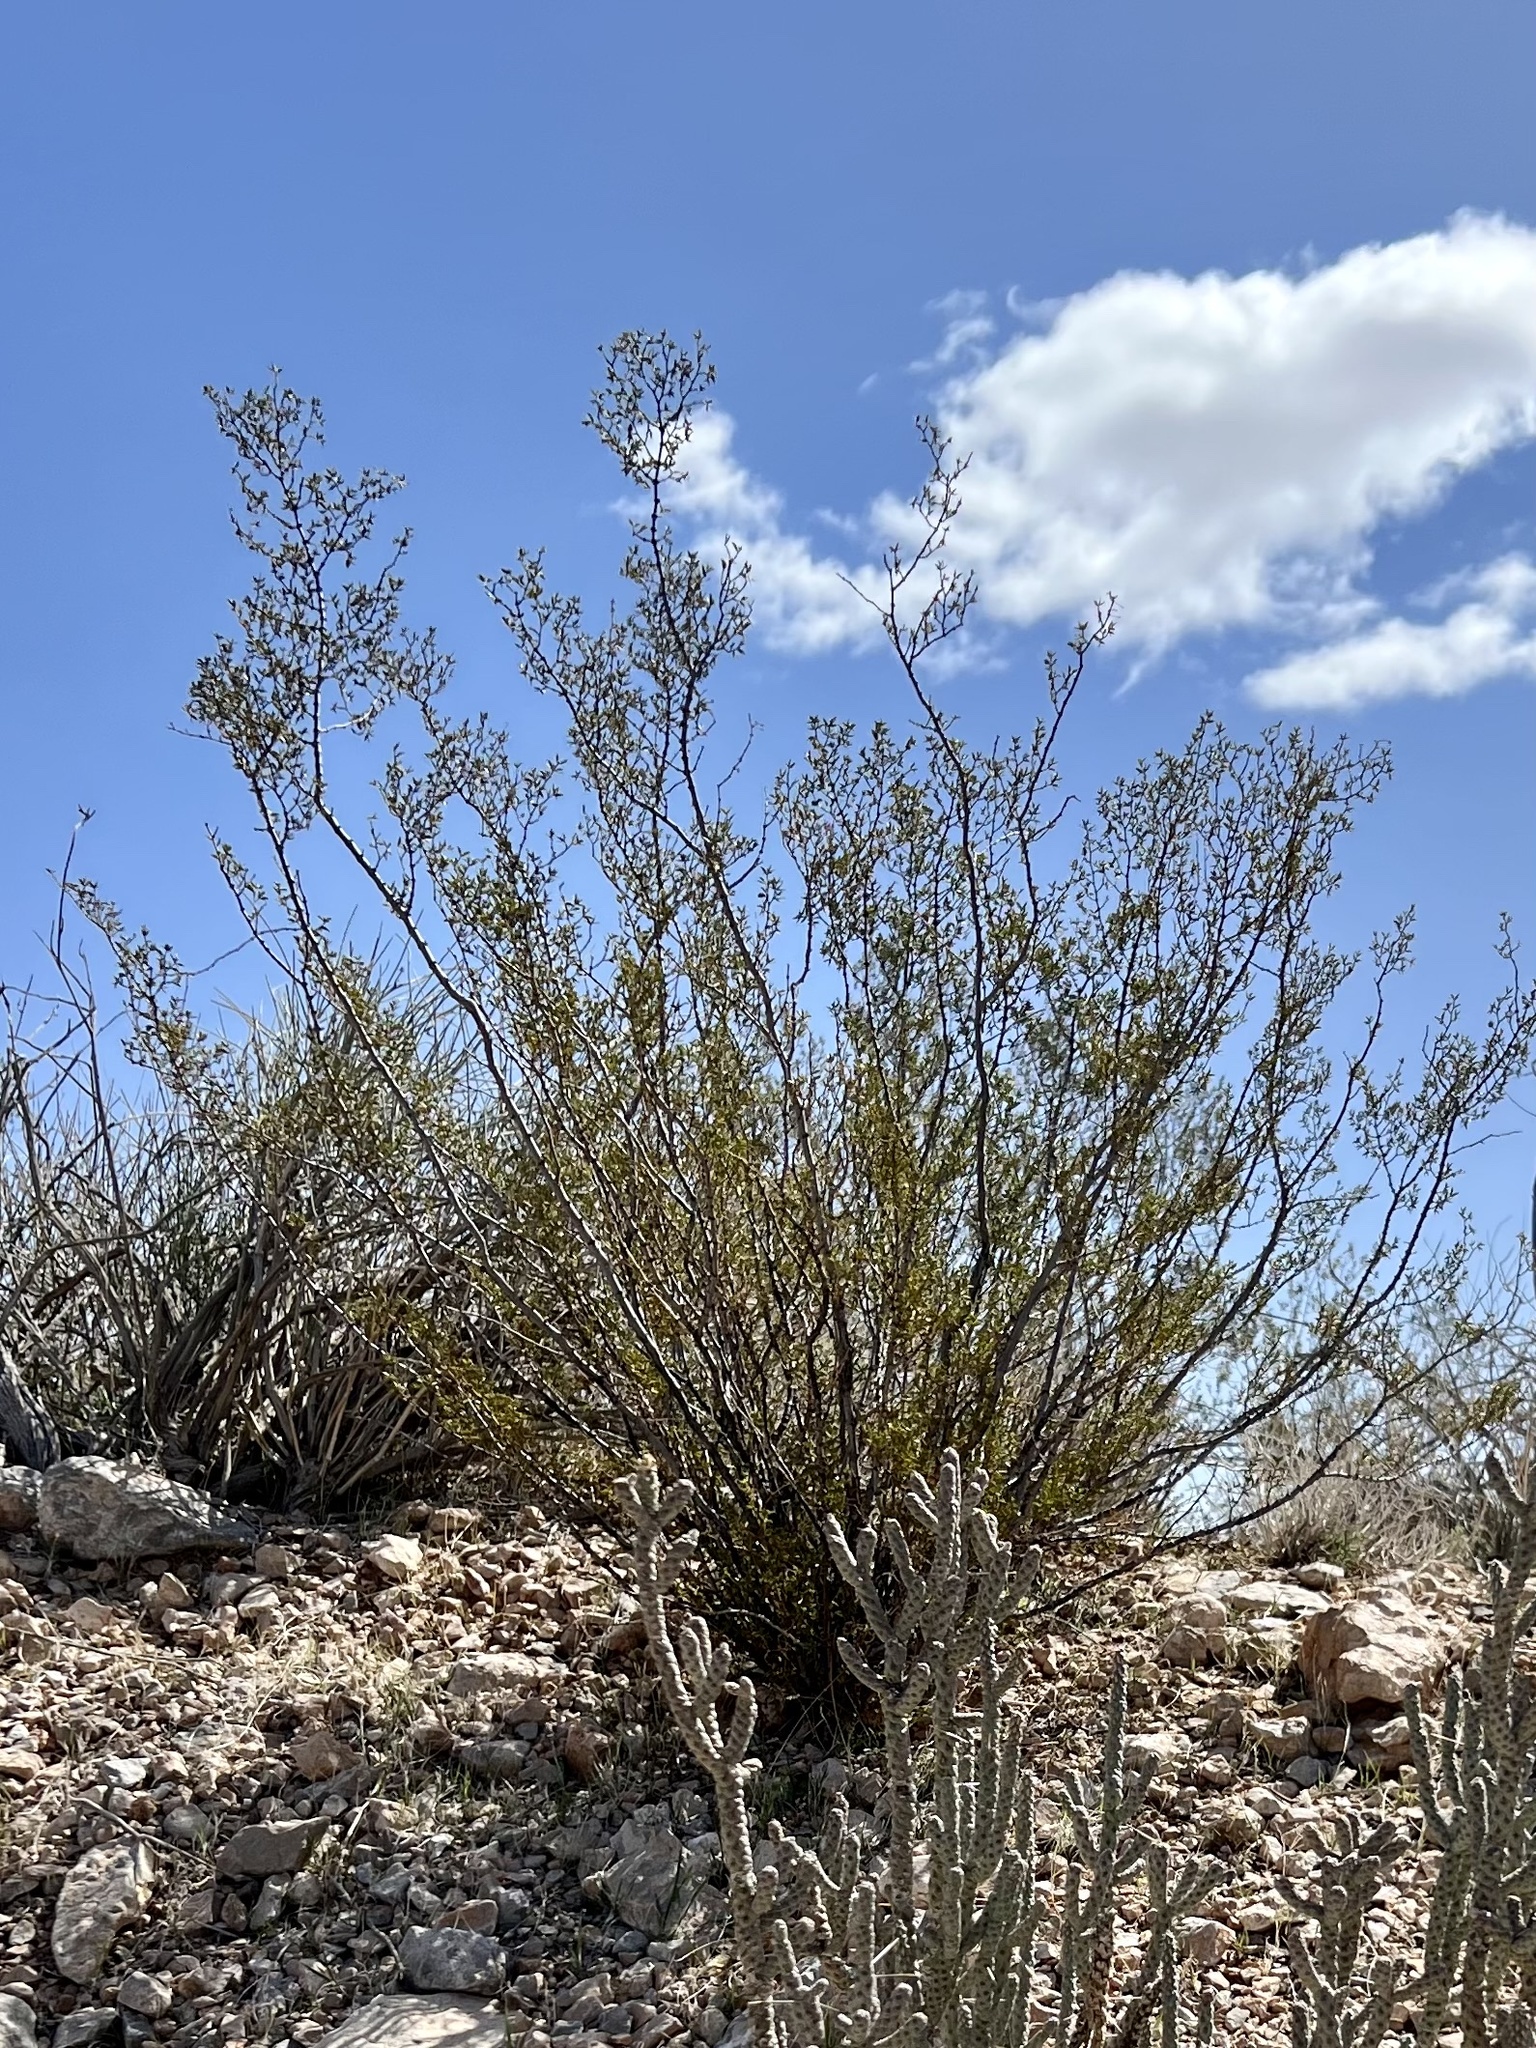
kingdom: Plantae
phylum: Tracheophyta
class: Magnoliopsida
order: Zygophyllales
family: Zygophyllaceae
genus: Larrea
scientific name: Larrea tridentata
